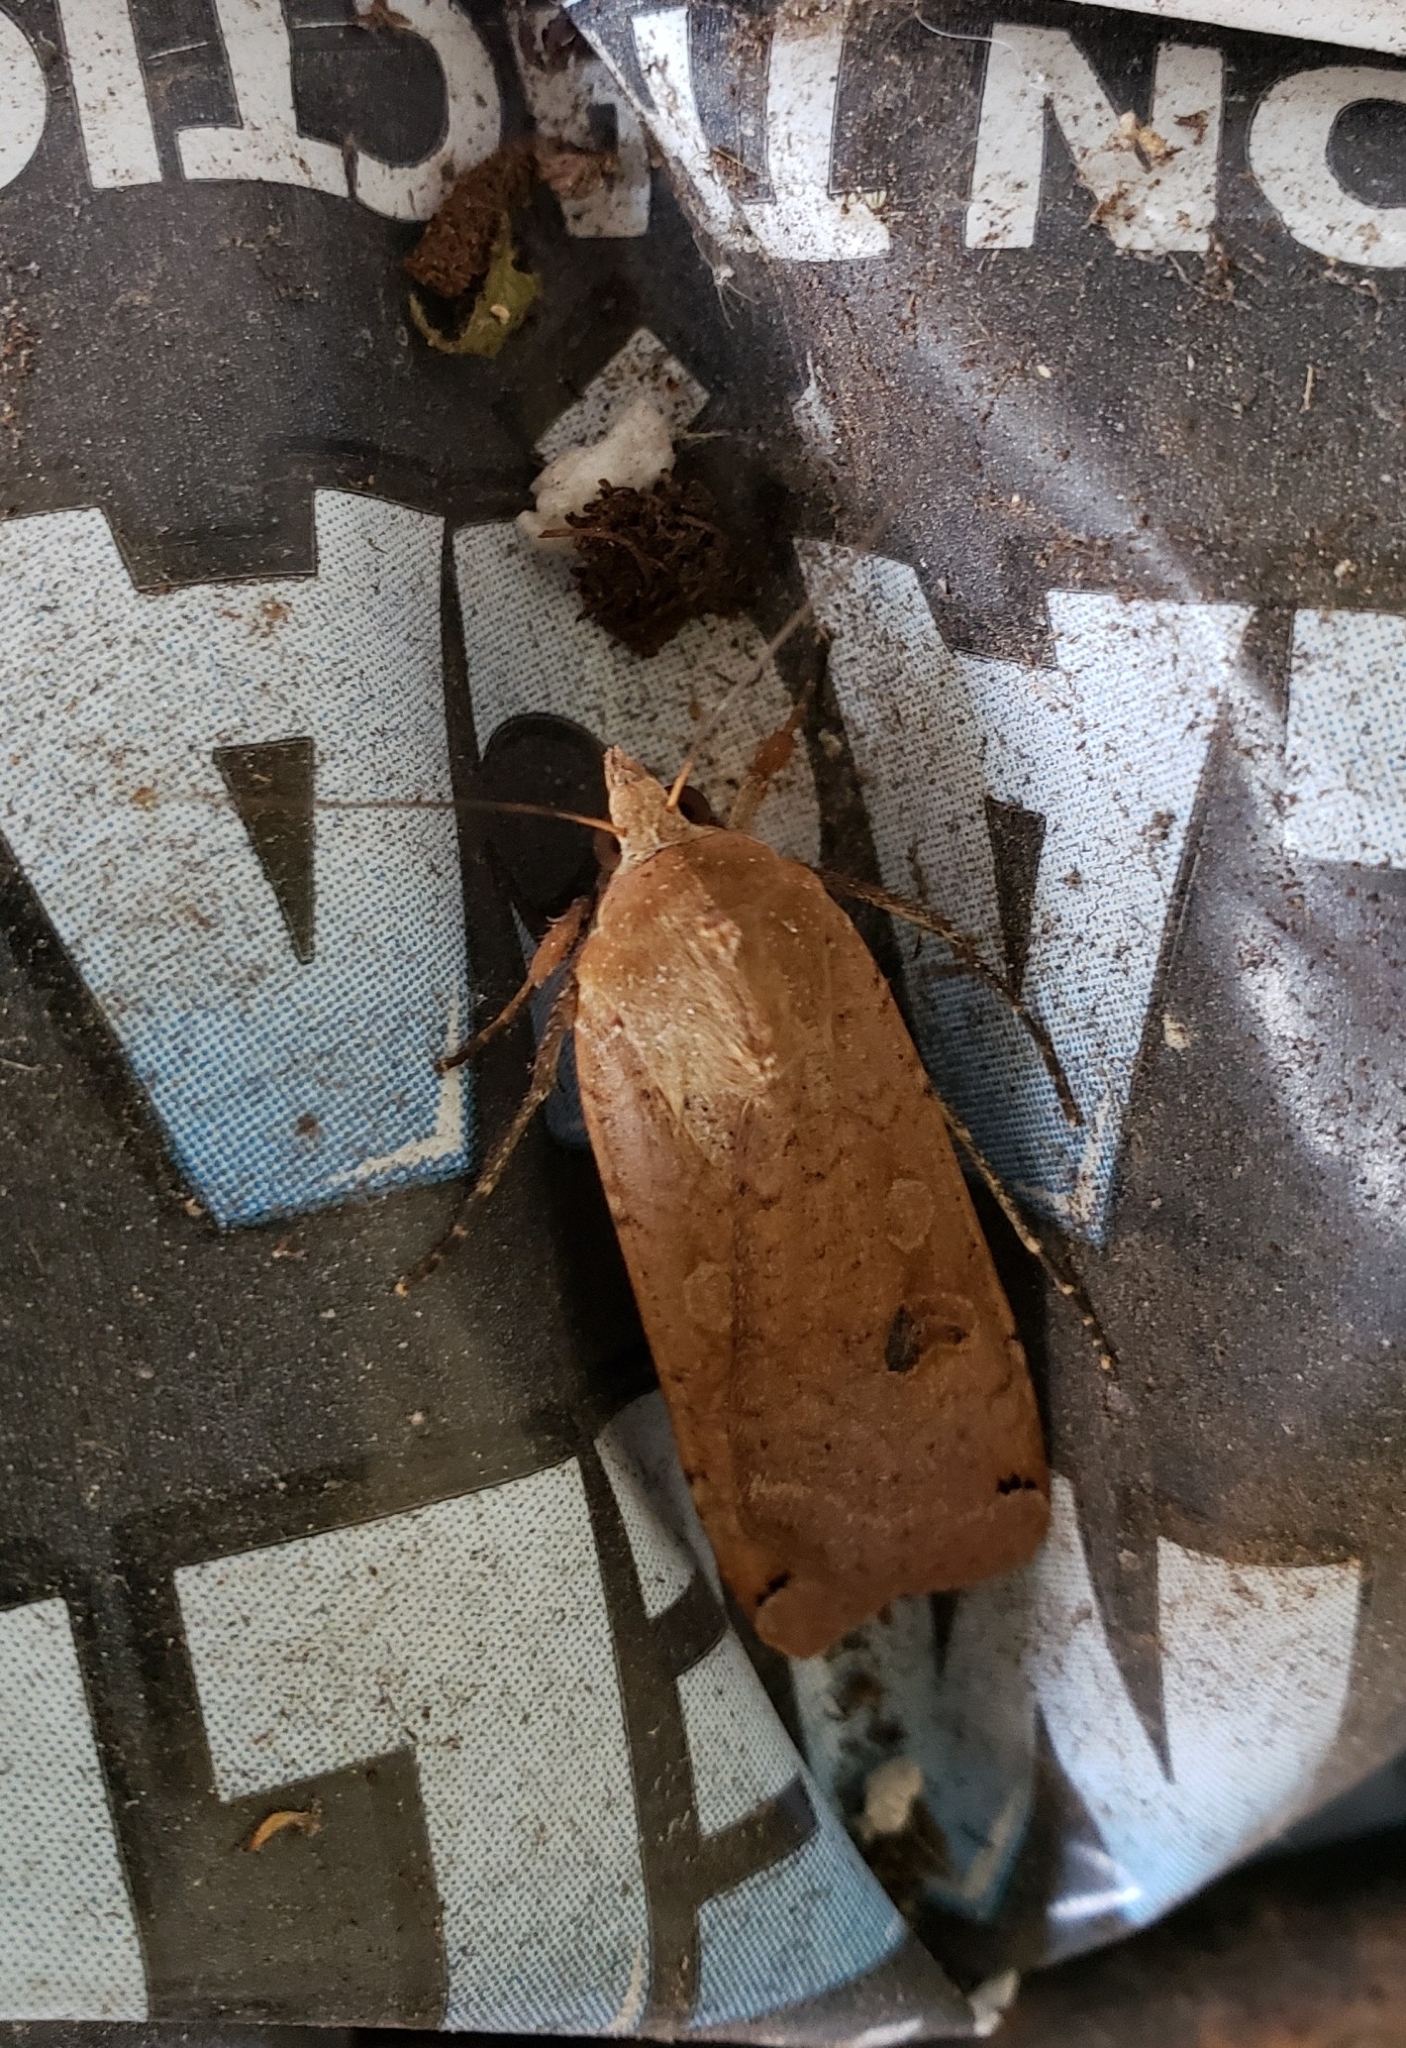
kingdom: Animalia
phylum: Arthropoda
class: Insecta
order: Lepidoptera
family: Noctuidae
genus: Noctua
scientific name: Noctua pronuba
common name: Large yellow underwing
